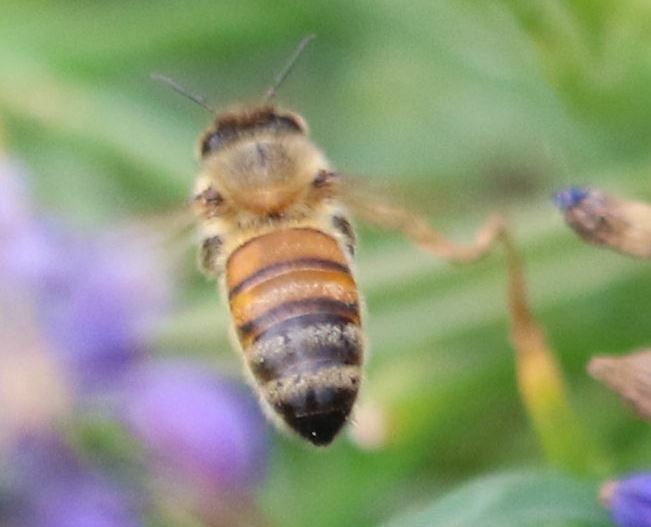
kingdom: Animalia
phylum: Arthropoda
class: Insecta
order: Hymenoptera
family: Apidae
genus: Apis
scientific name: Apis mellifera
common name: Honey bee
